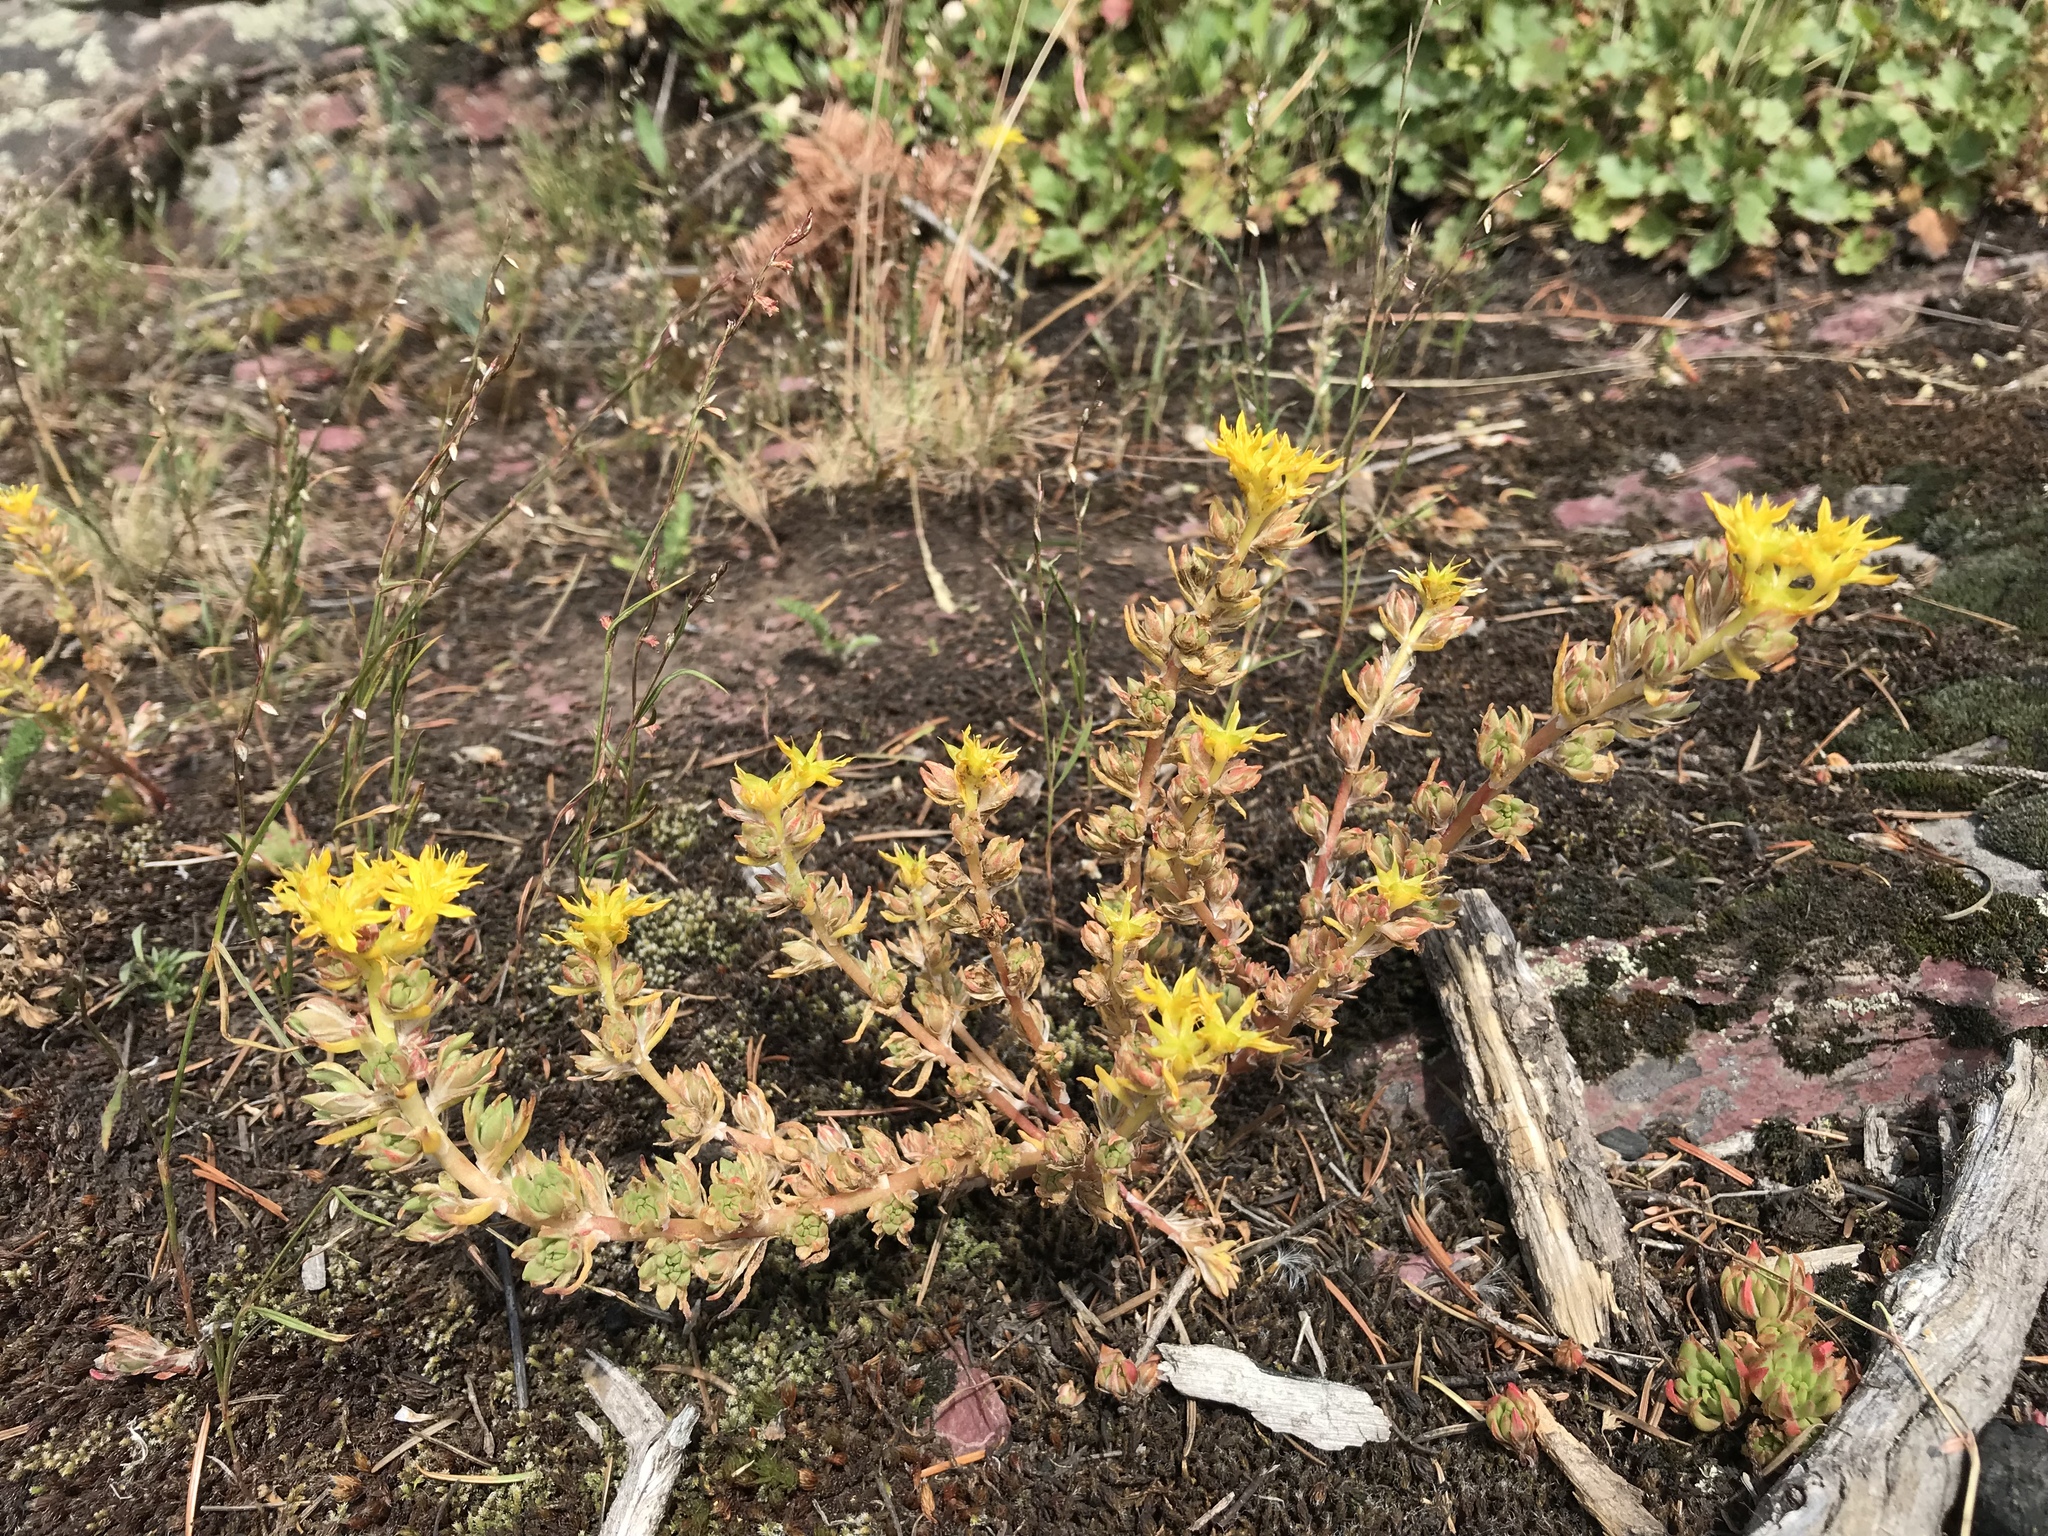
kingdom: Plantae
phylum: Tracheophyta
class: Magnoliopsida
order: Saxifragales
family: Crassulaceae
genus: Sedum
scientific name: Sedum stenopetalum
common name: Narrow-petaled stonecrop
